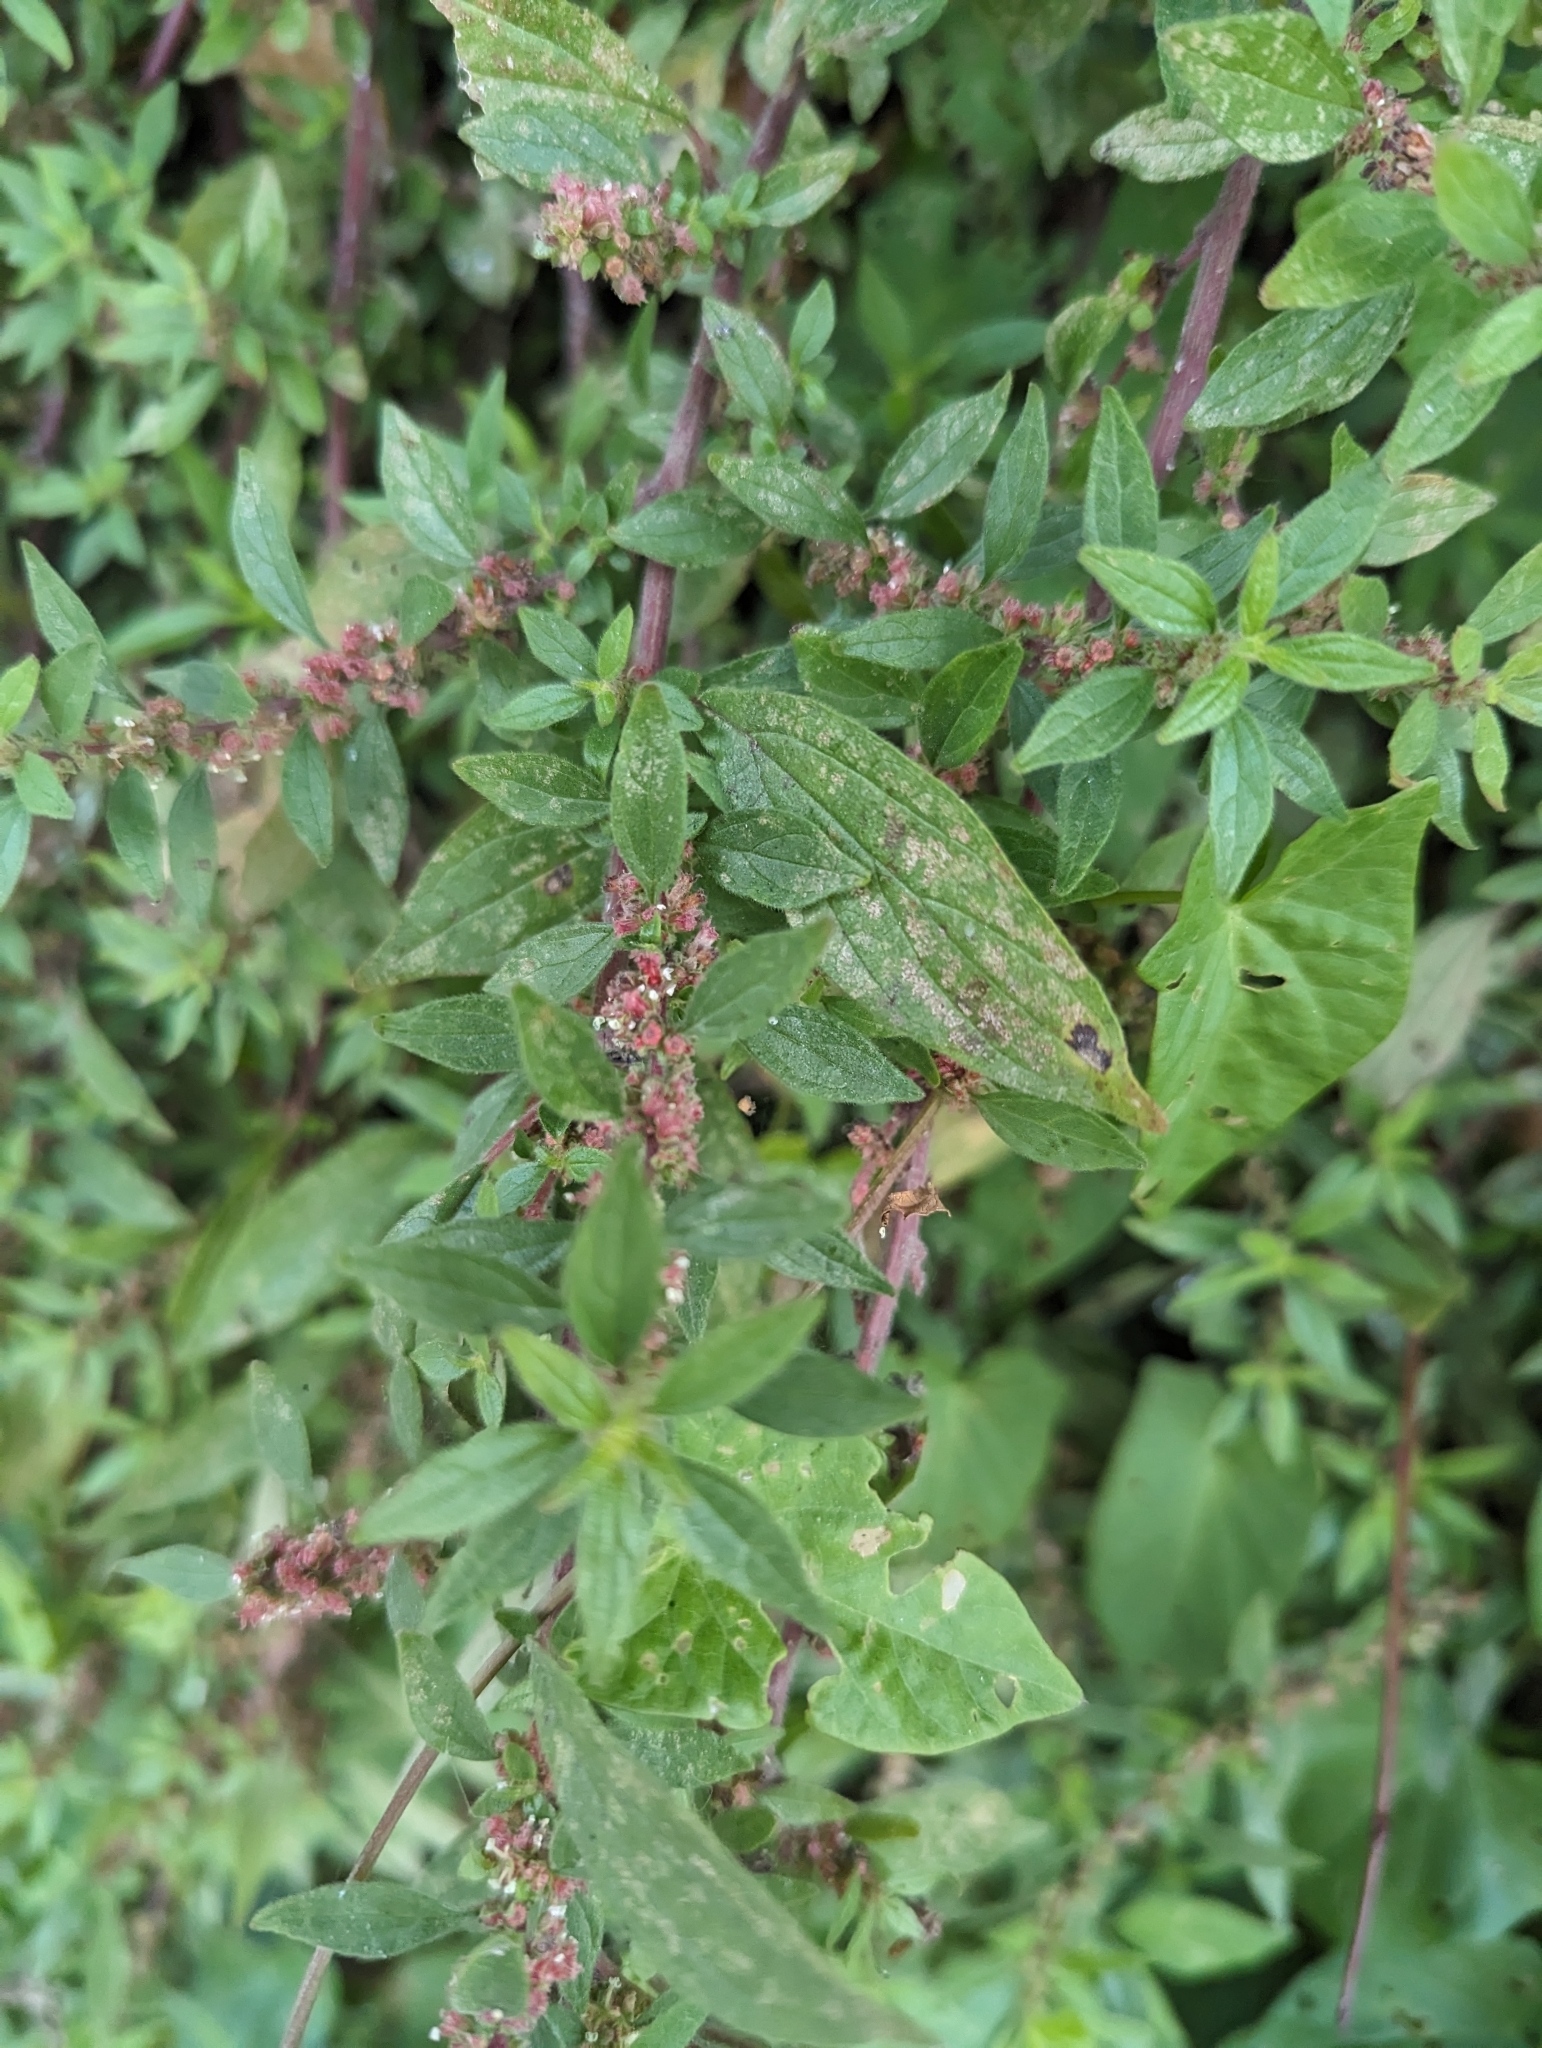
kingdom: Plantae
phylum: Tracheophyta
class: Magnoliopsida
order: Rosales
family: Urticaceae
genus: Parietaria
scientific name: Parietaria judaica
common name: Pellitory-of-the-wall
